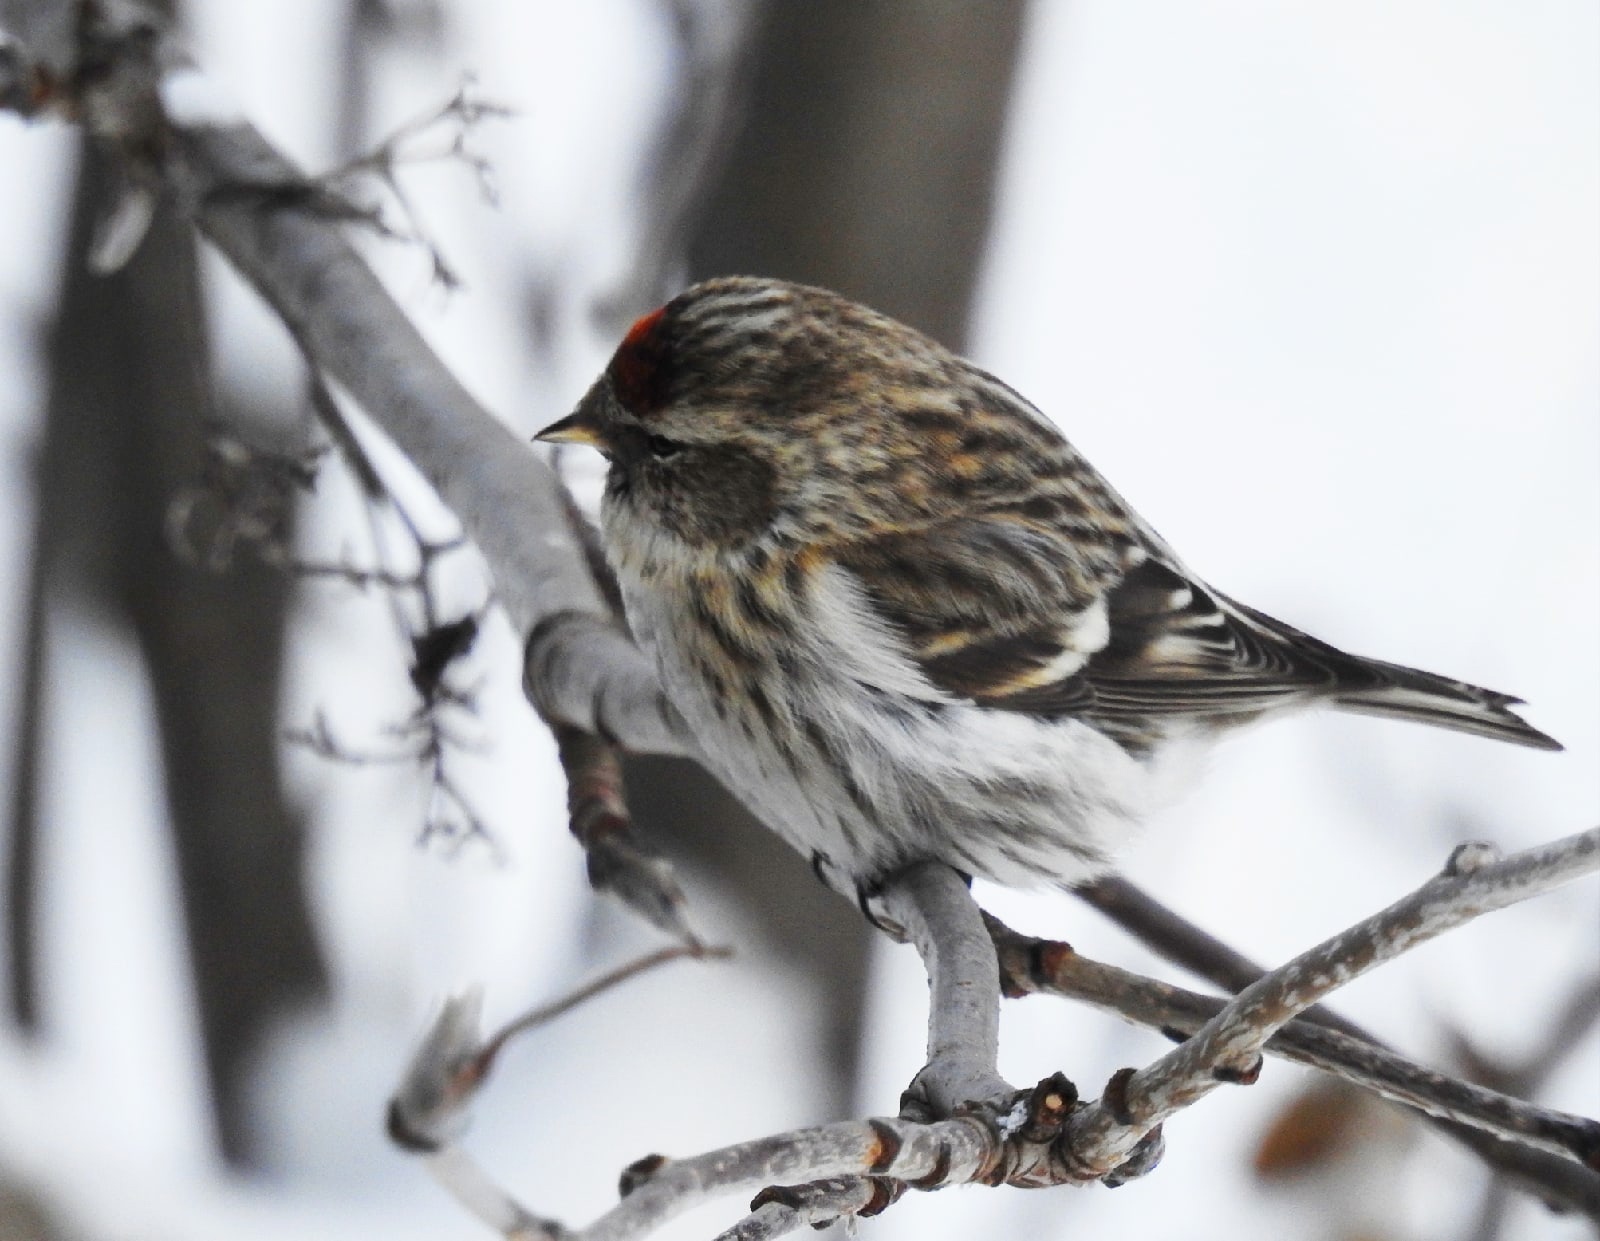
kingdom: Animalia
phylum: Chordata
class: Aves
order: Passeriformes
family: Fringillidae
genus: Acanthis
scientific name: Acanthis flammea
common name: Common redpoll
